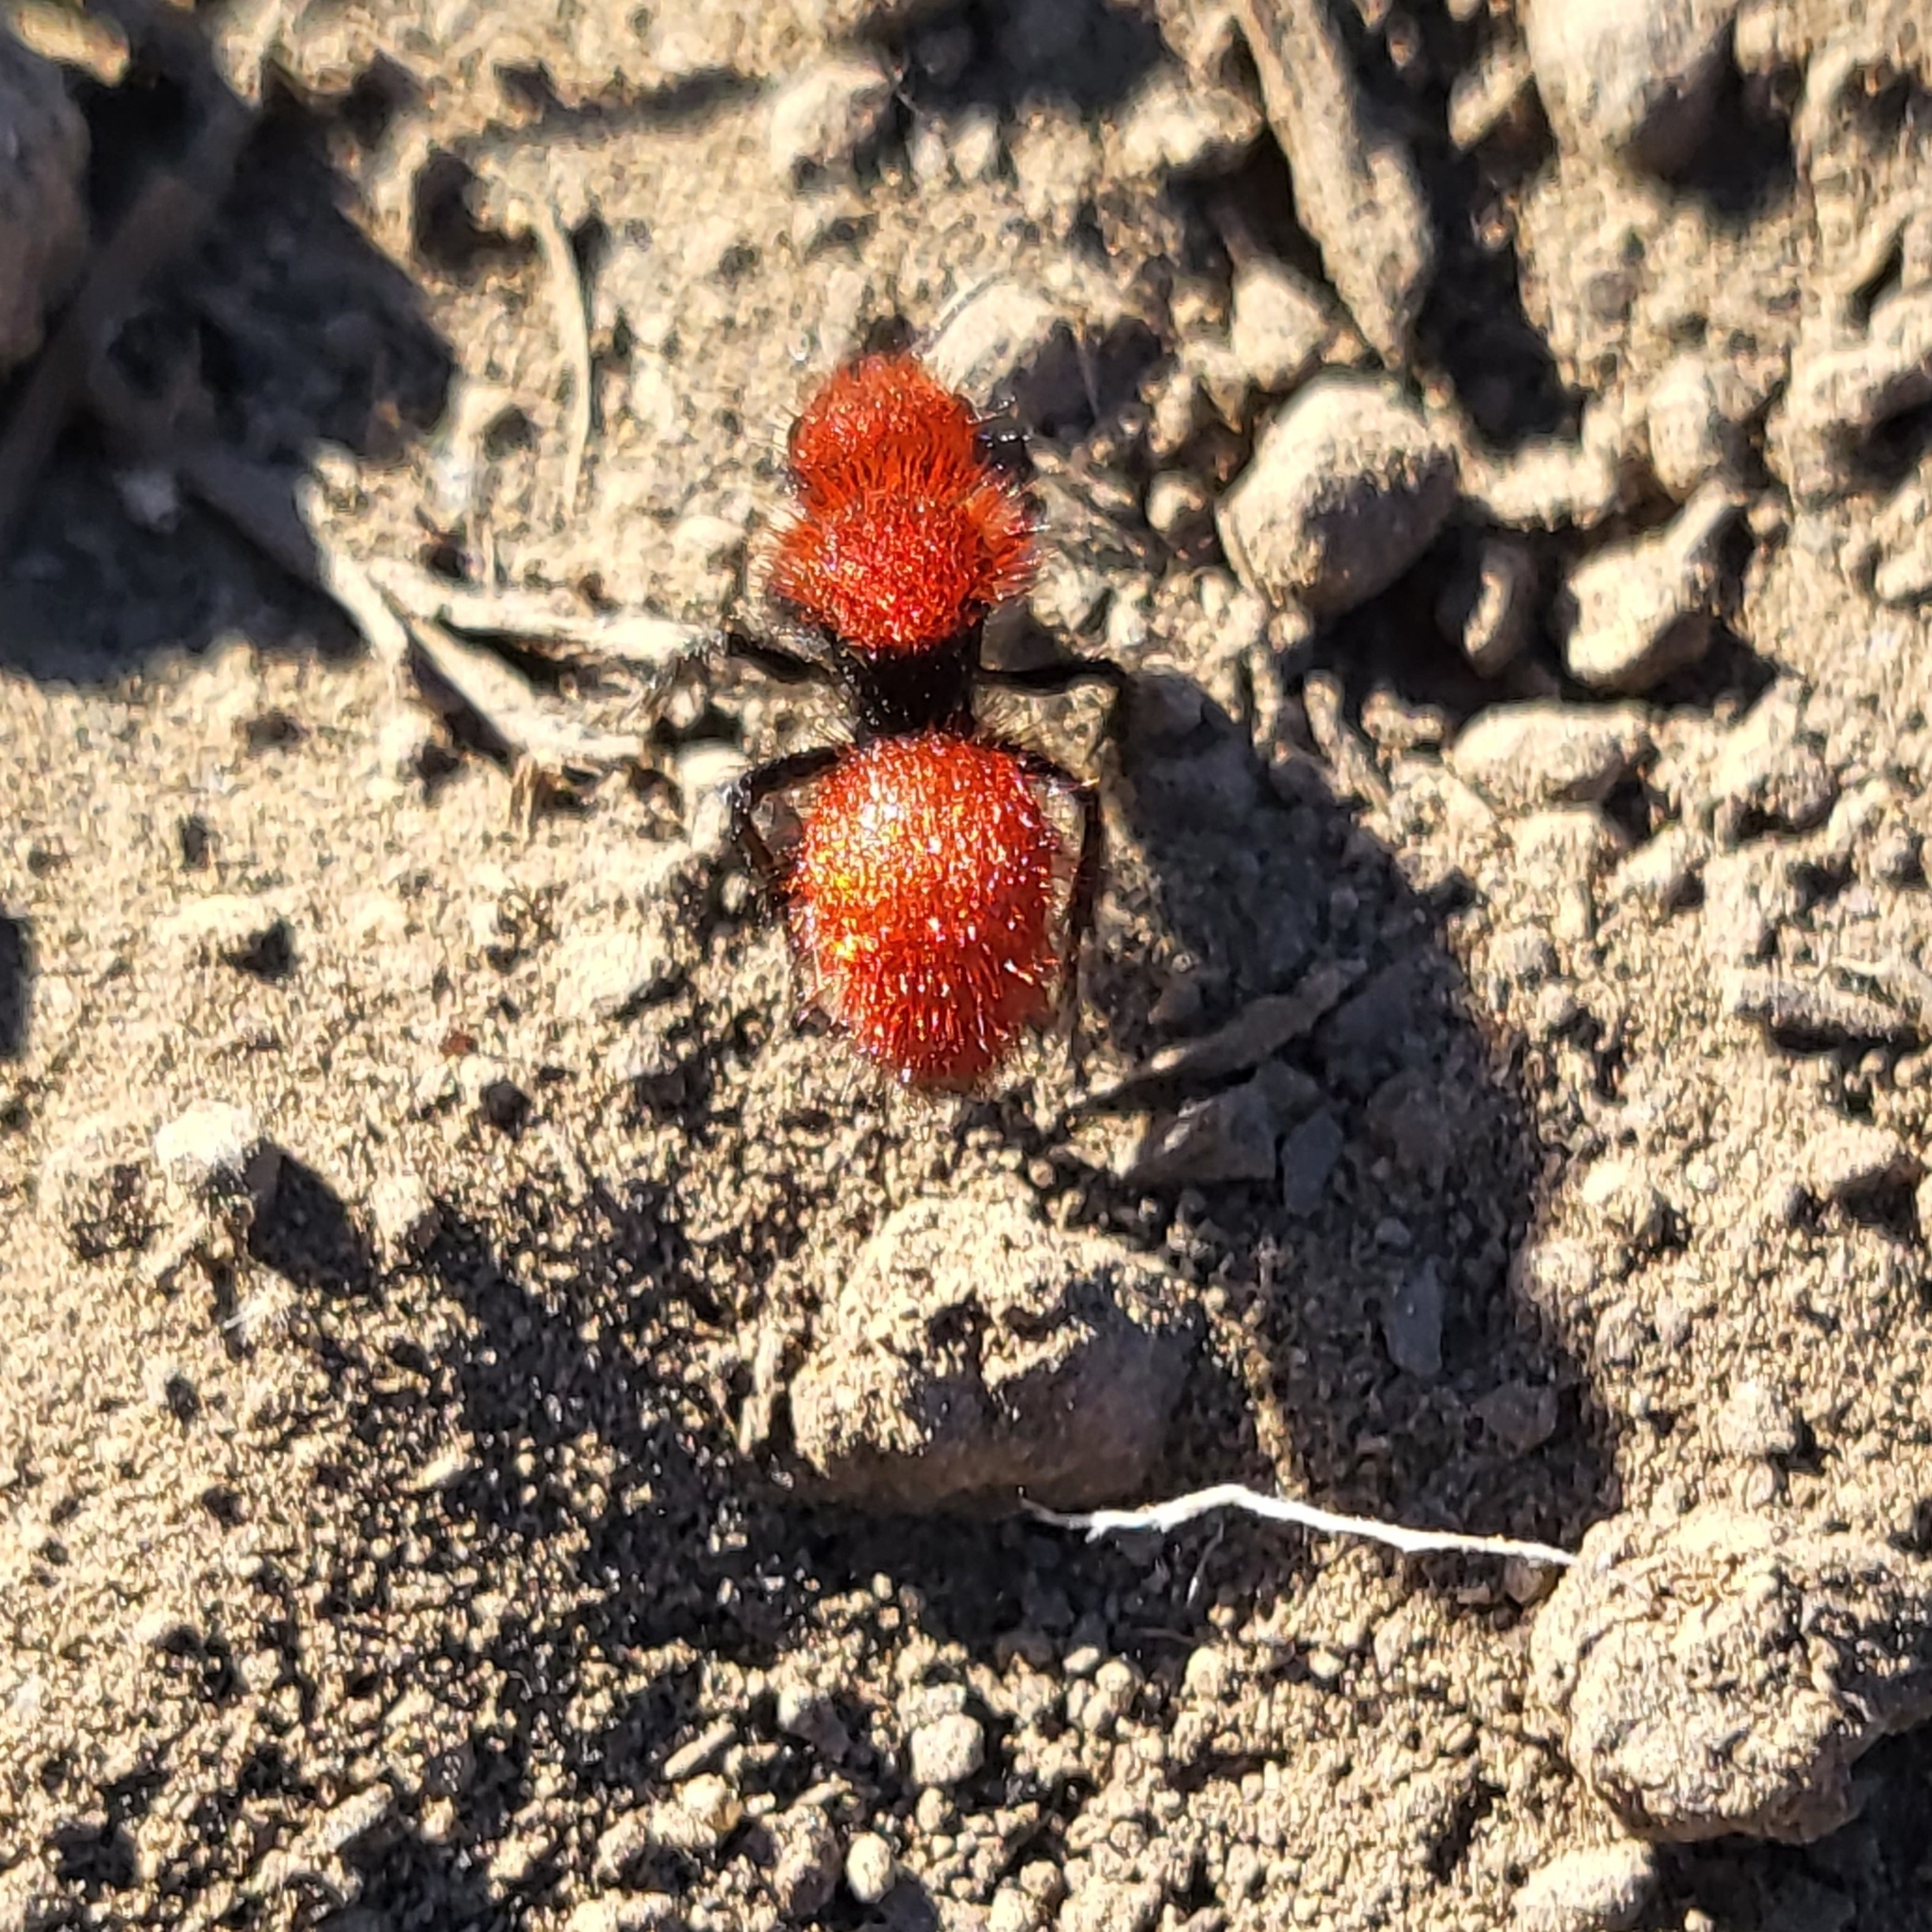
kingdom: Animalia
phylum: Arthropoda
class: Insecta
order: Hymenoptera
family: Mutillidae
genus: Dasymutilla
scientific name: Dasymutilla
